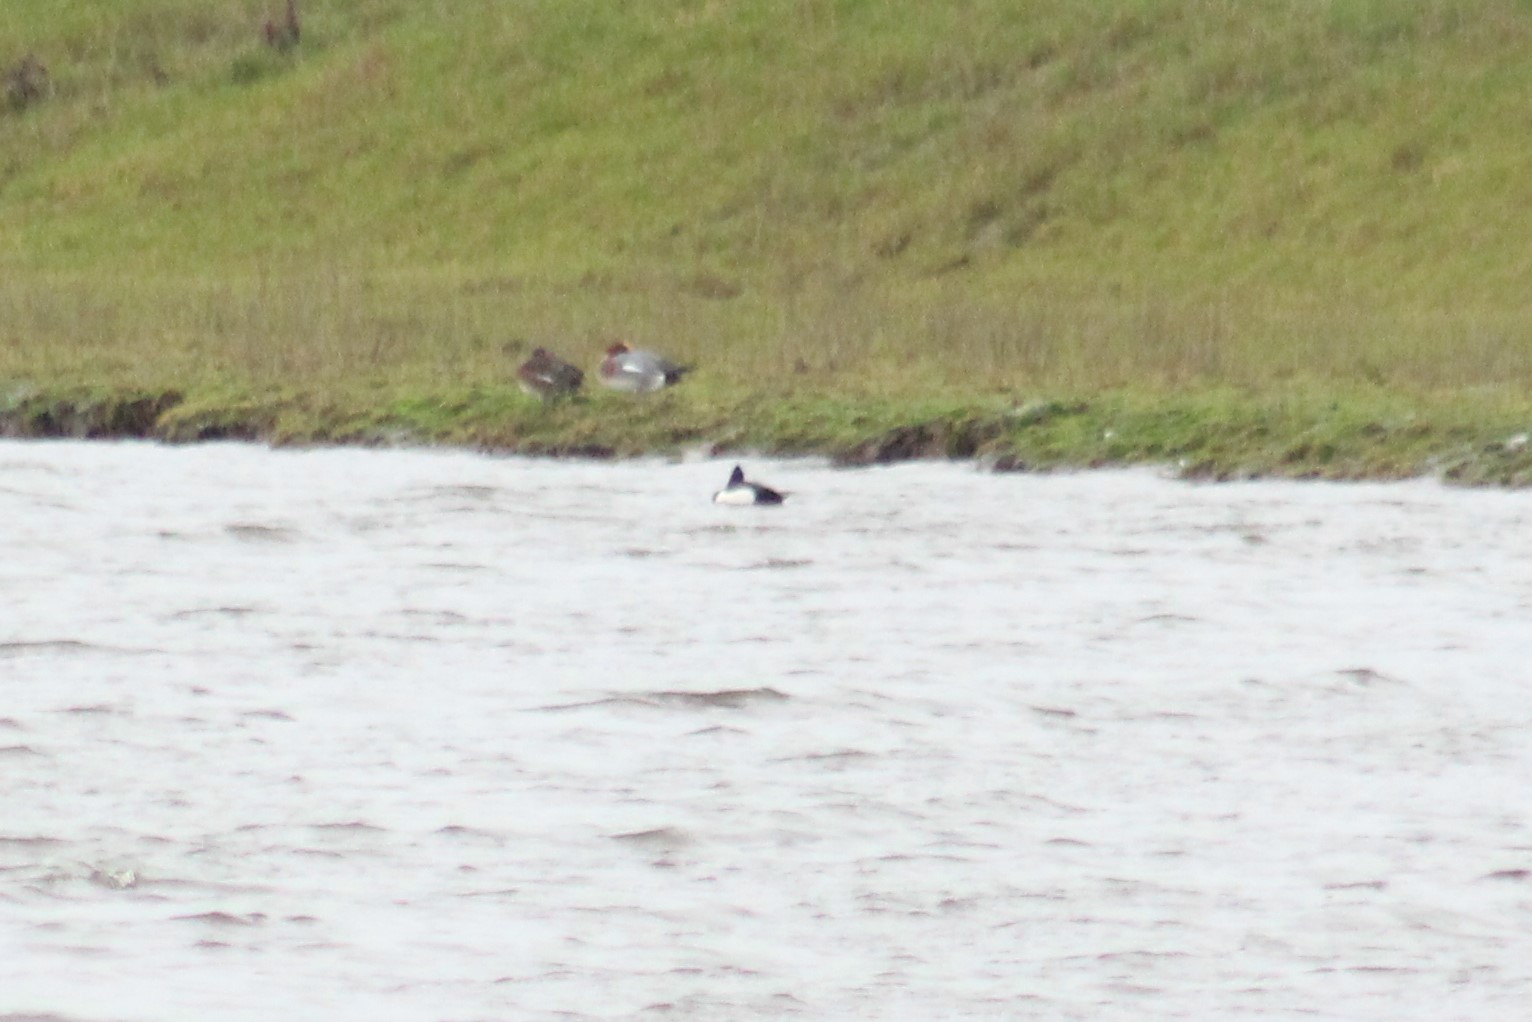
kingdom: Animalia
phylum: Chordata
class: Aves
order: Anseriformes
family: Anatidae
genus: Aythya
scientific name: Aythya fuligula
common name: Tufted duck
